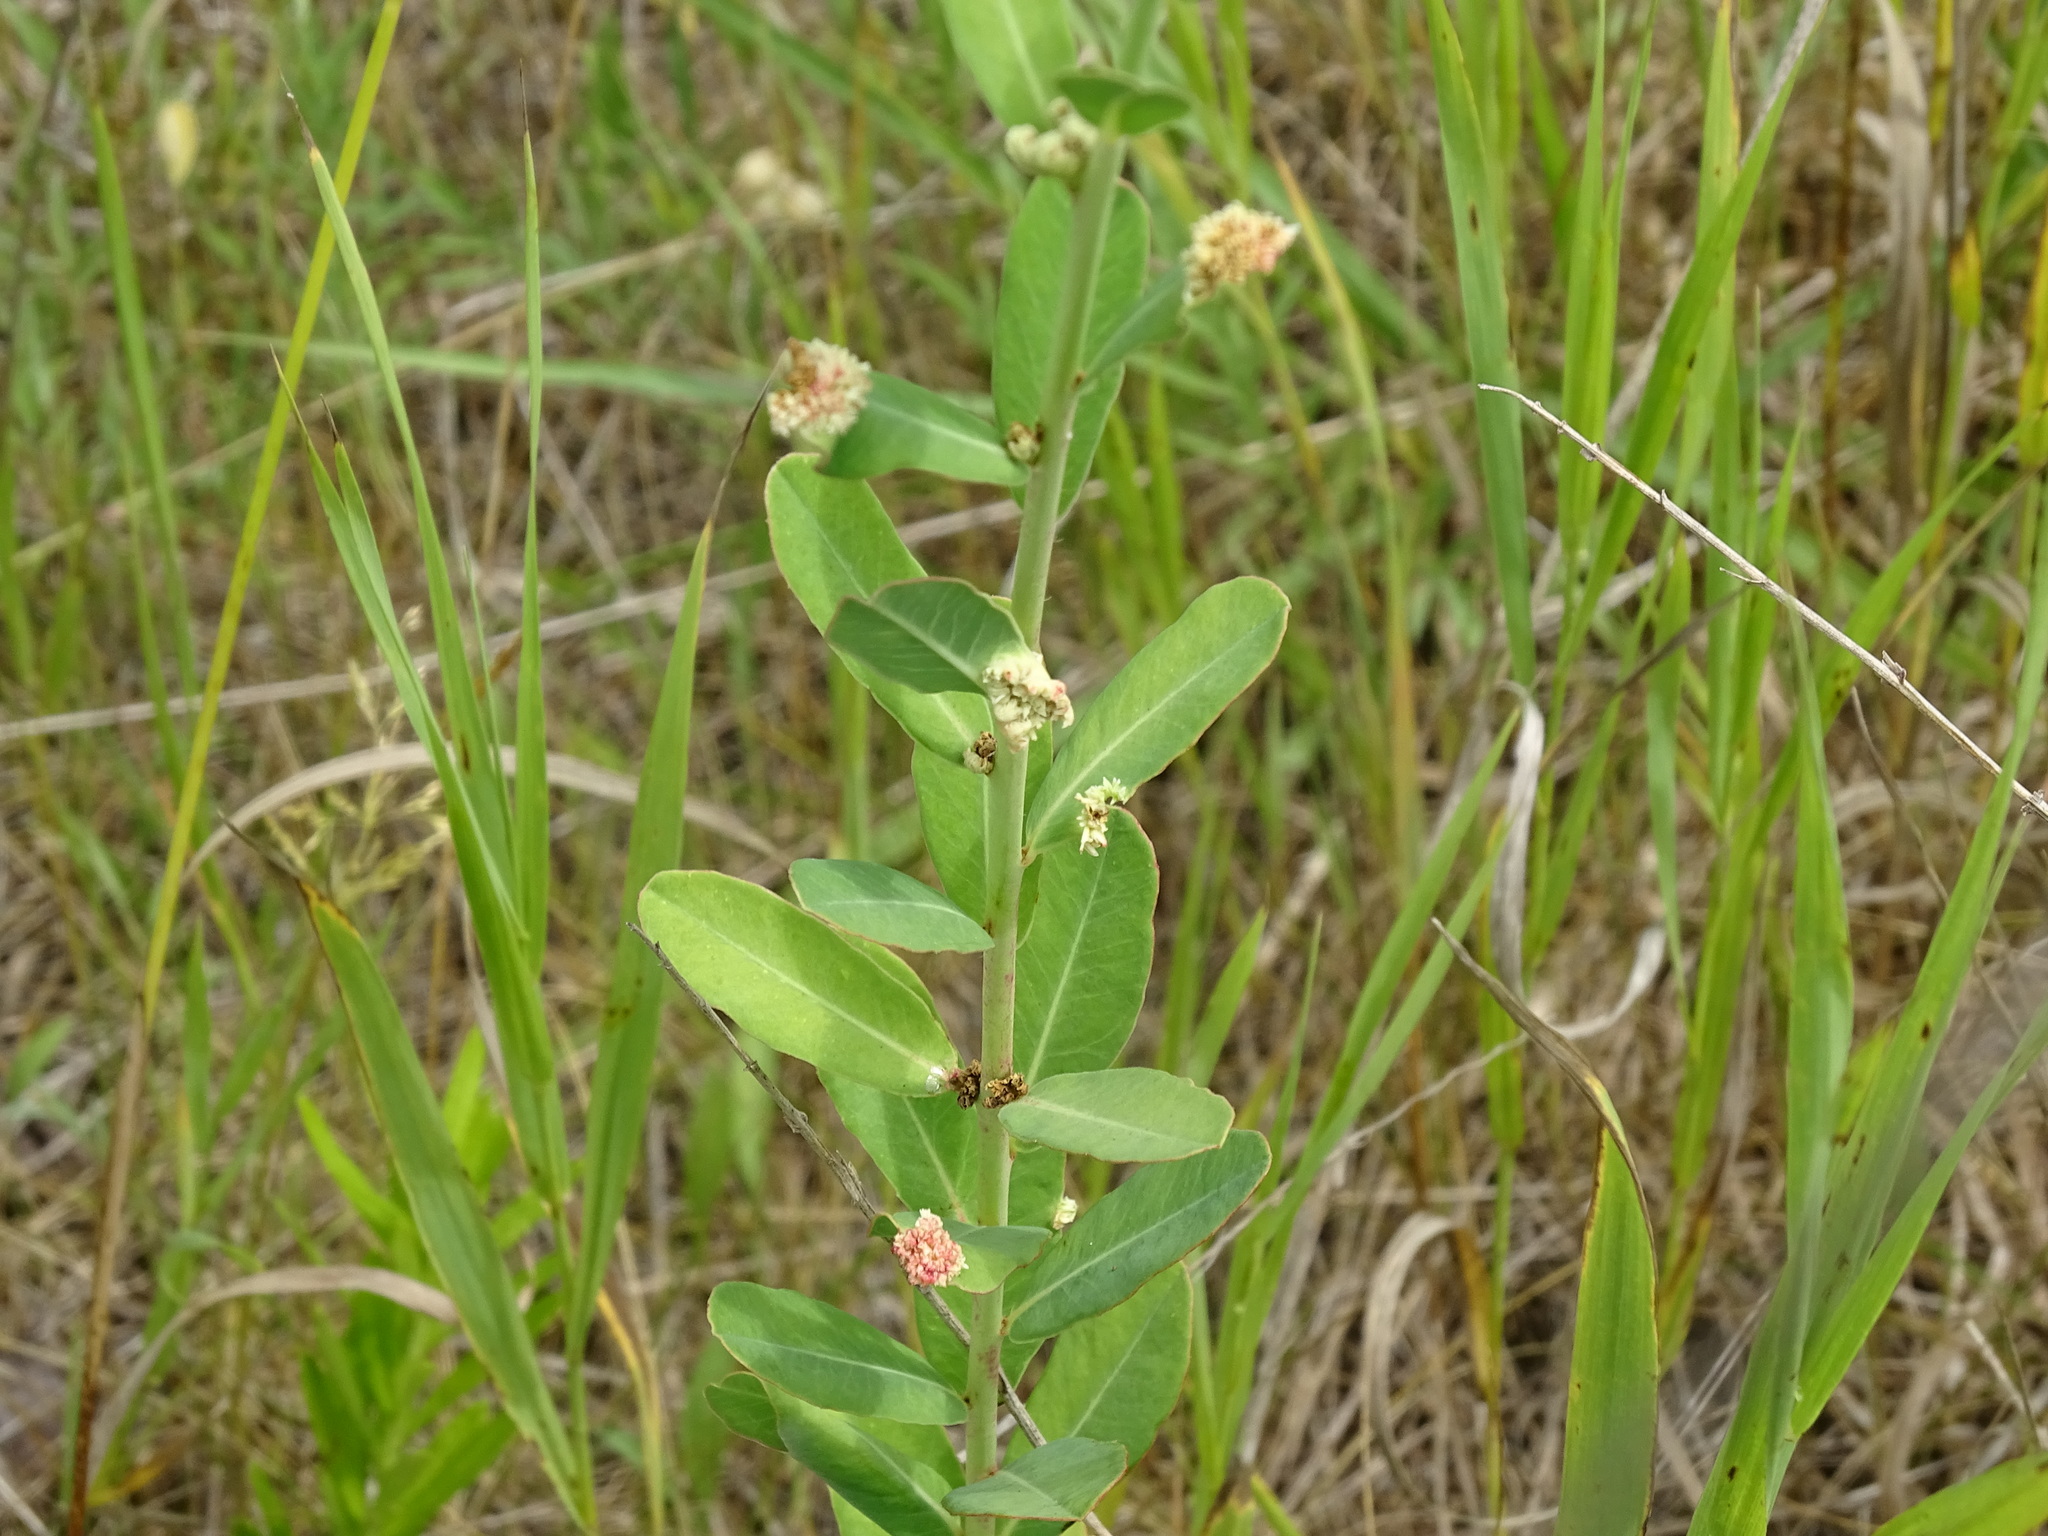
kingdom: Plantae
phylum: Tracheophyta
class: Magnoliopsida
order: Malpighiales
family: Euphorbiaceae
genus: Euphorbia
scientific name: Euphorbia corollata
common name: Flowering spurge
